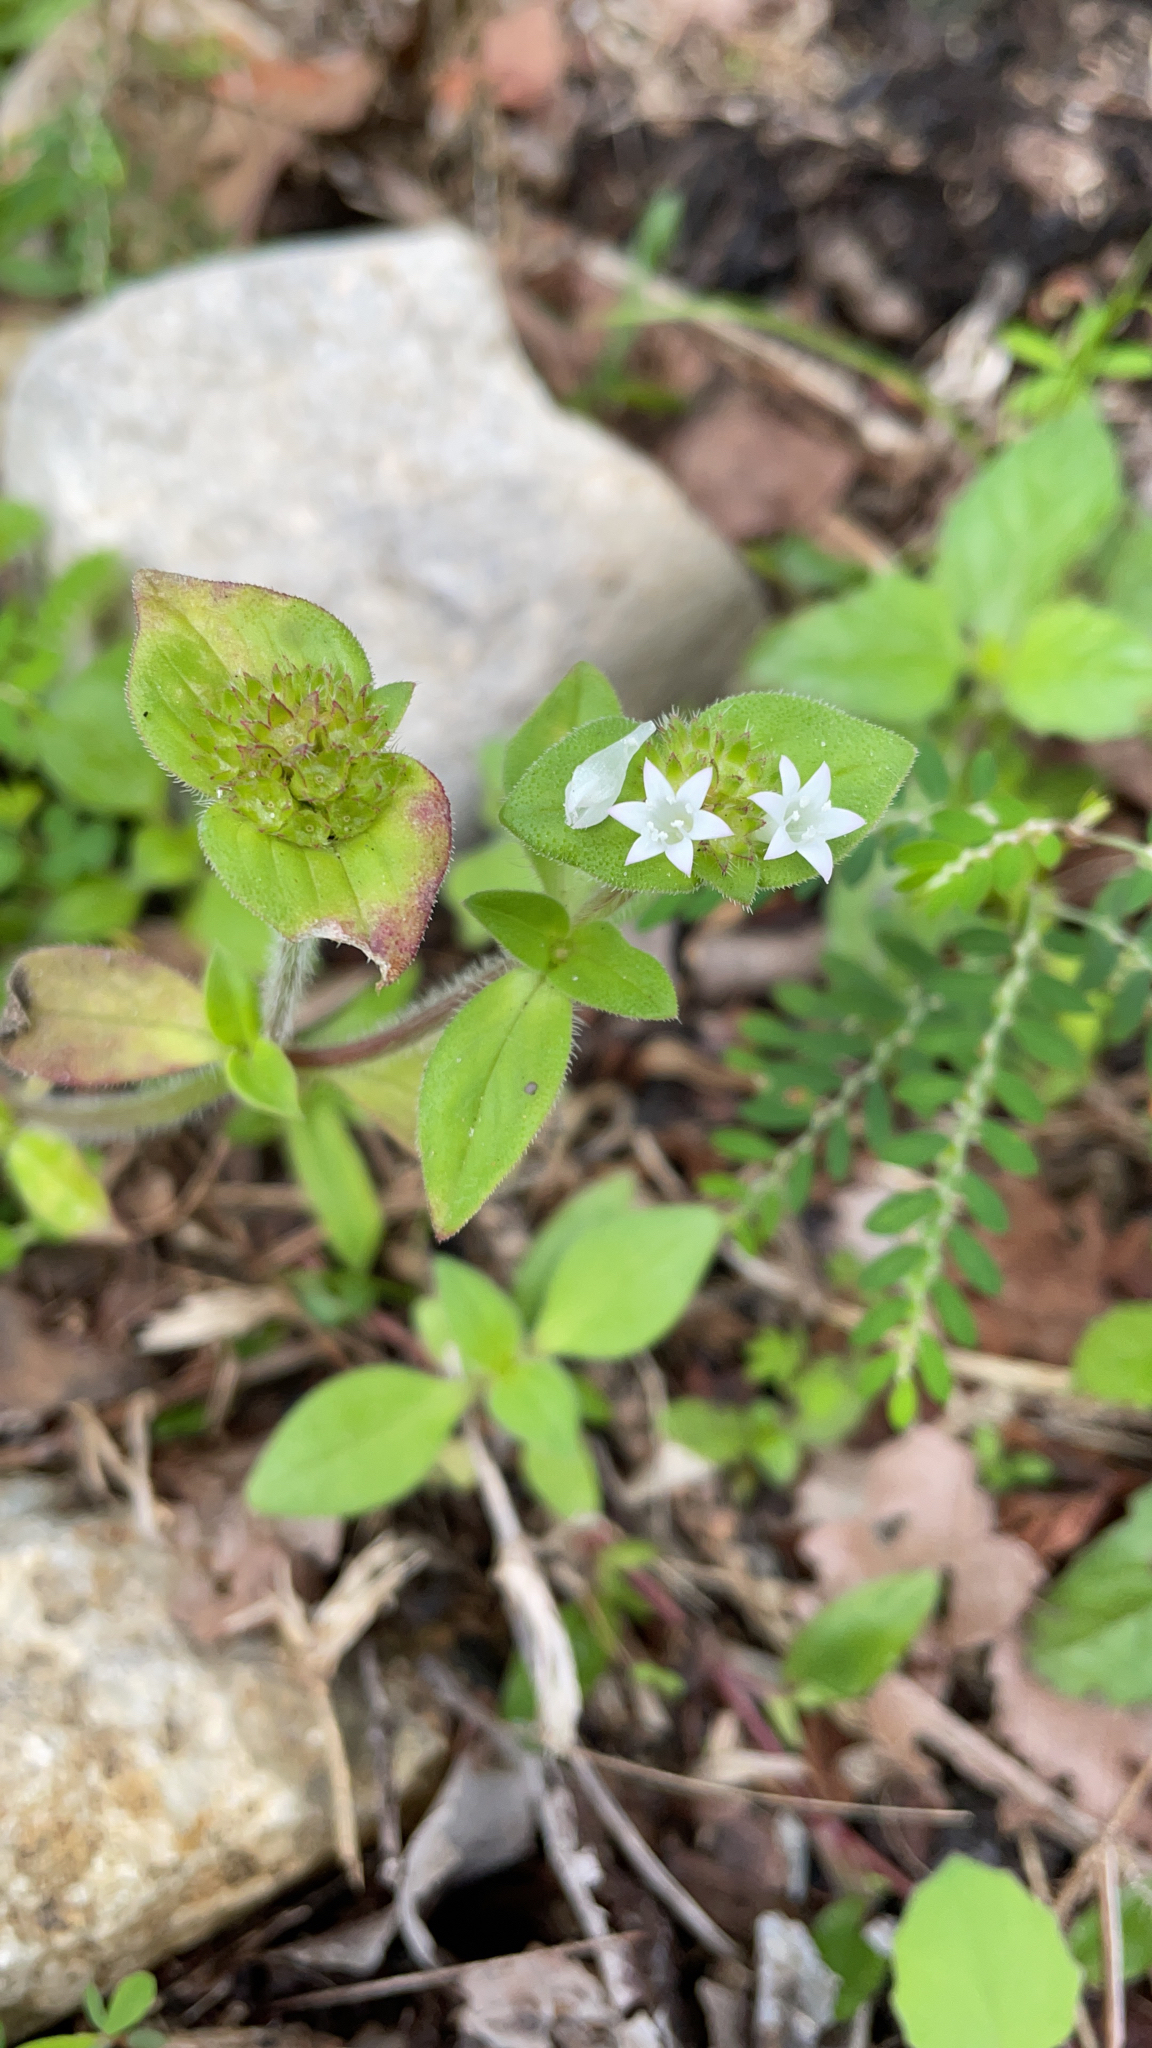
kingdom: Plantae
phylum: Tracheophyta
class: Magnoliopsida
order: Gentianales
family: Rubiaceae
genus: Richardia
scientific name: Richardia scabra
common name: Rough mexican clover
